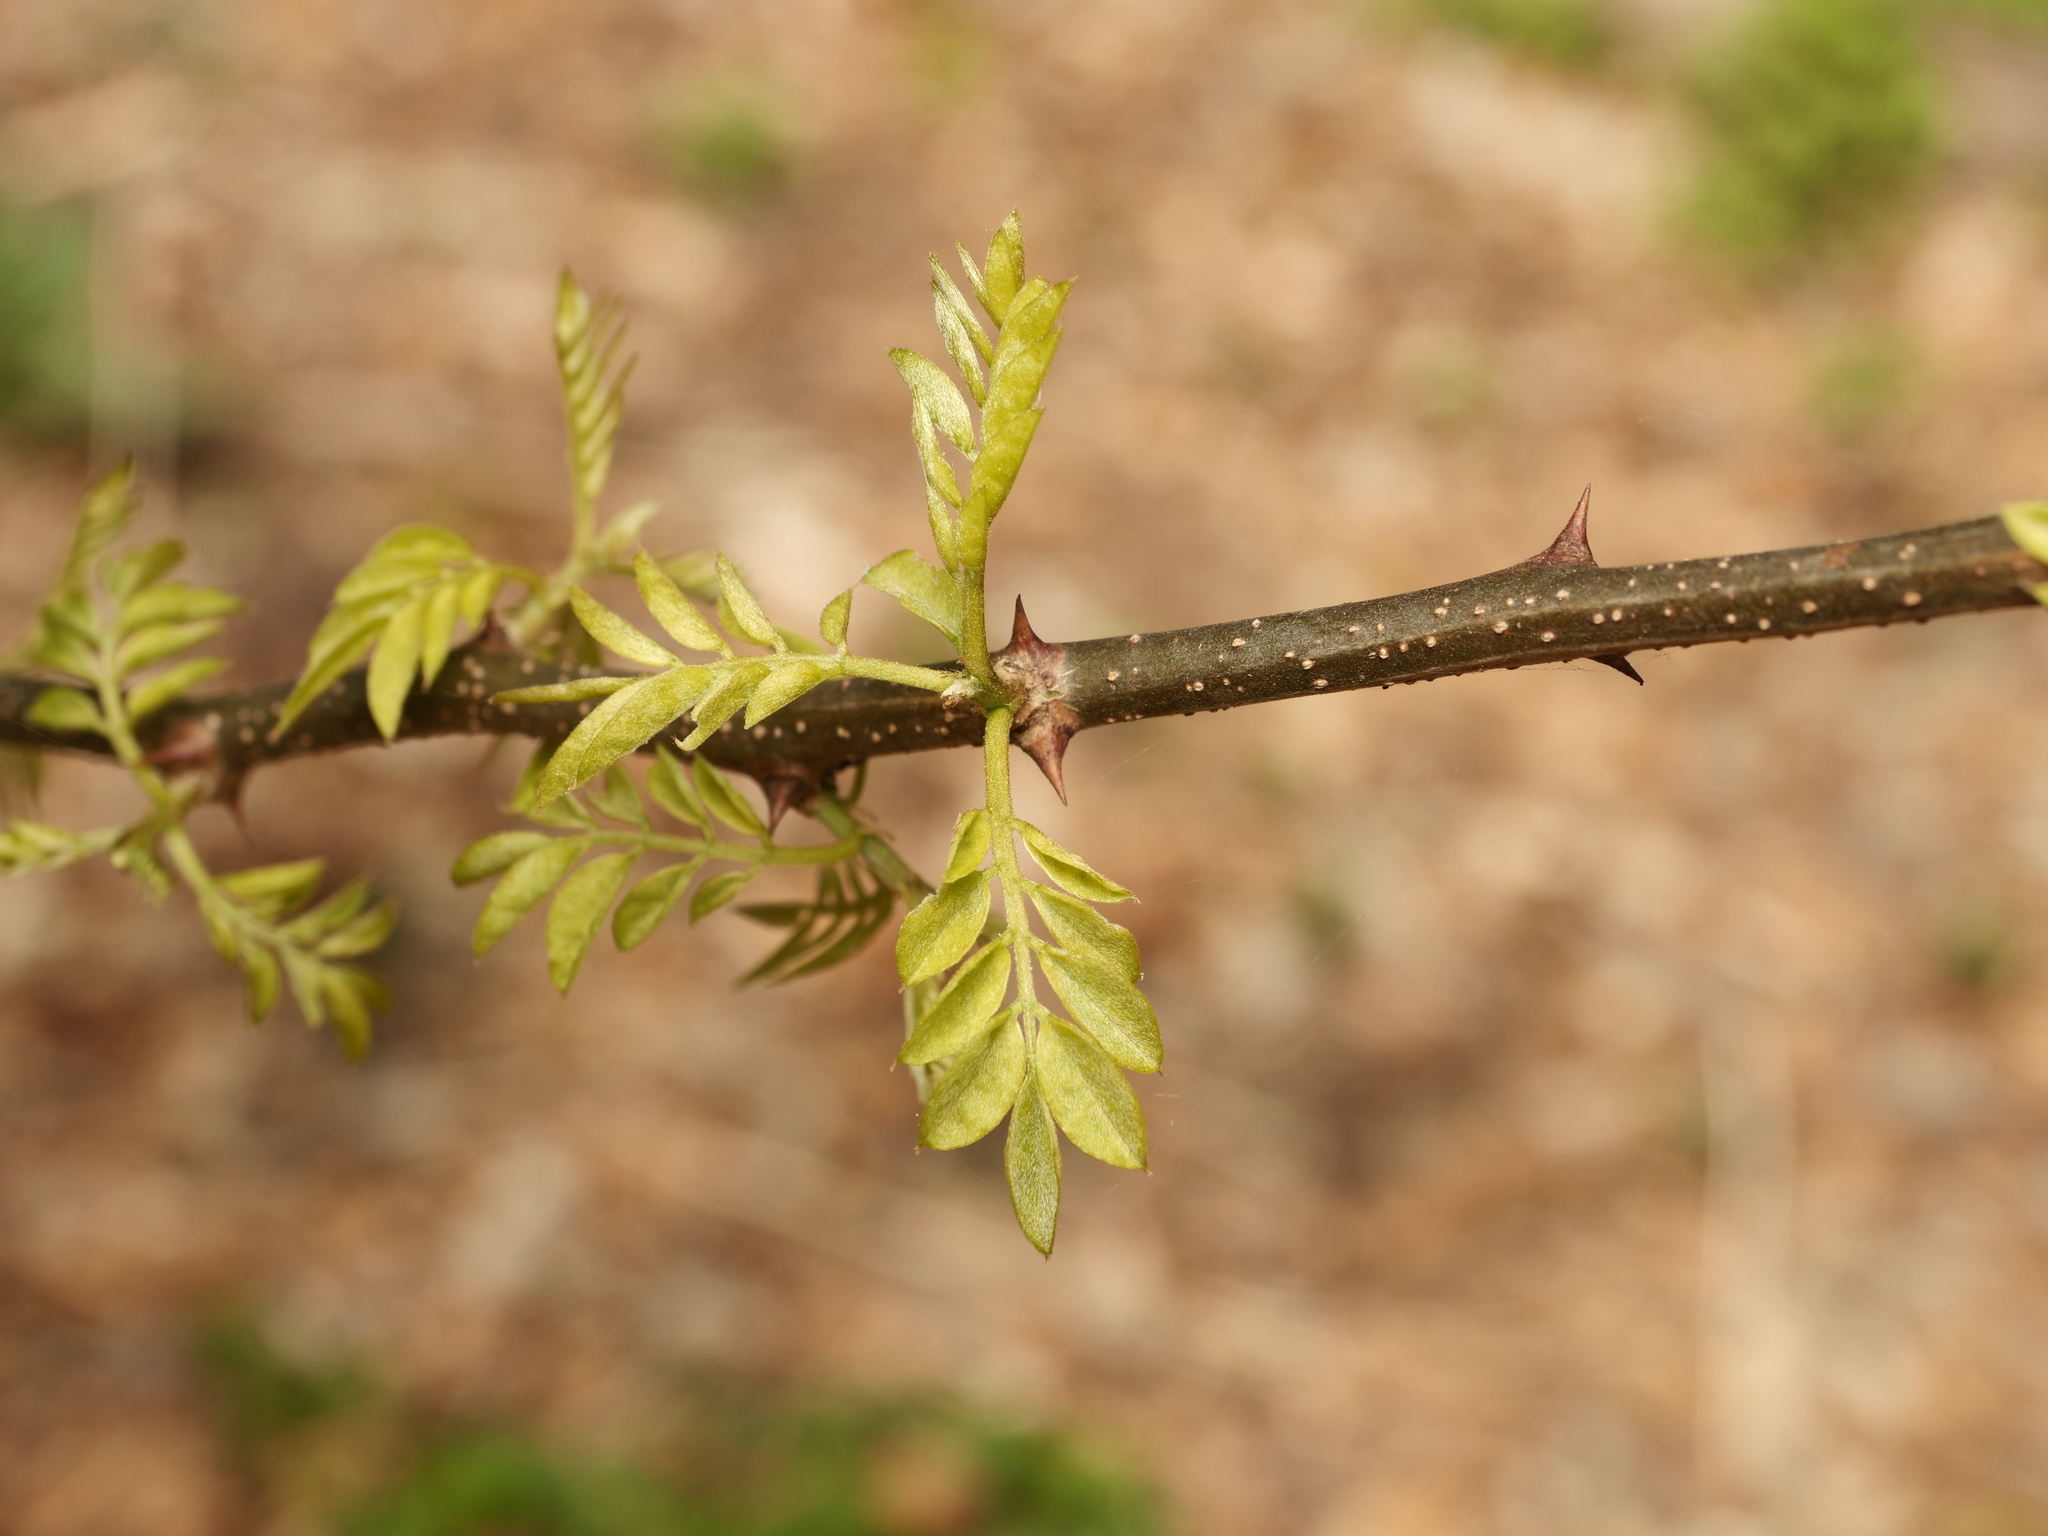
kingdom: Plantae
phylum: Tracheophyta
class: Magnoliopsida
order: Fabales
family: Fabaceae
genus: Robinia
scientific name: Robinia pseudoacacia
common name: Black locust
